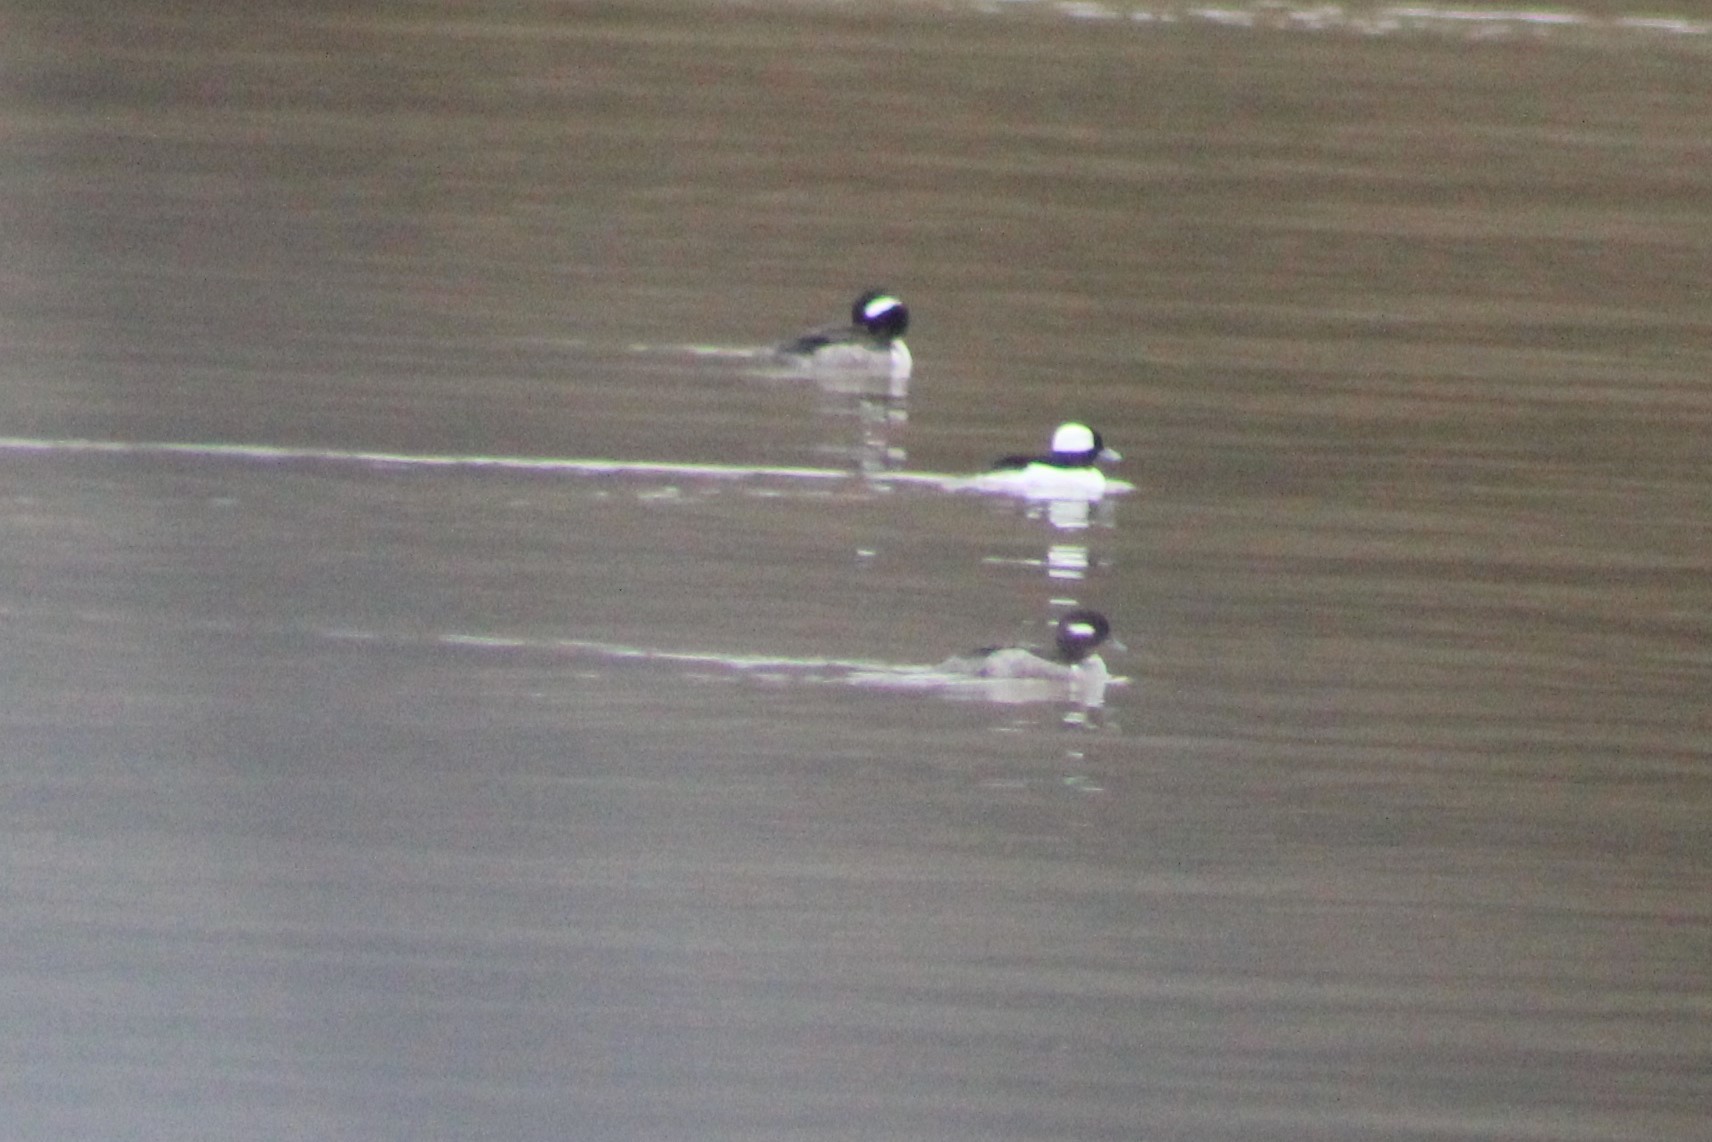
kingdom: Animalia
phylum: Chordata
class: Aves
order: Anseriformes
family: Anatidae
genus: Bucephala
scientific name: Bucephala albeola
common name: Bufflehead
